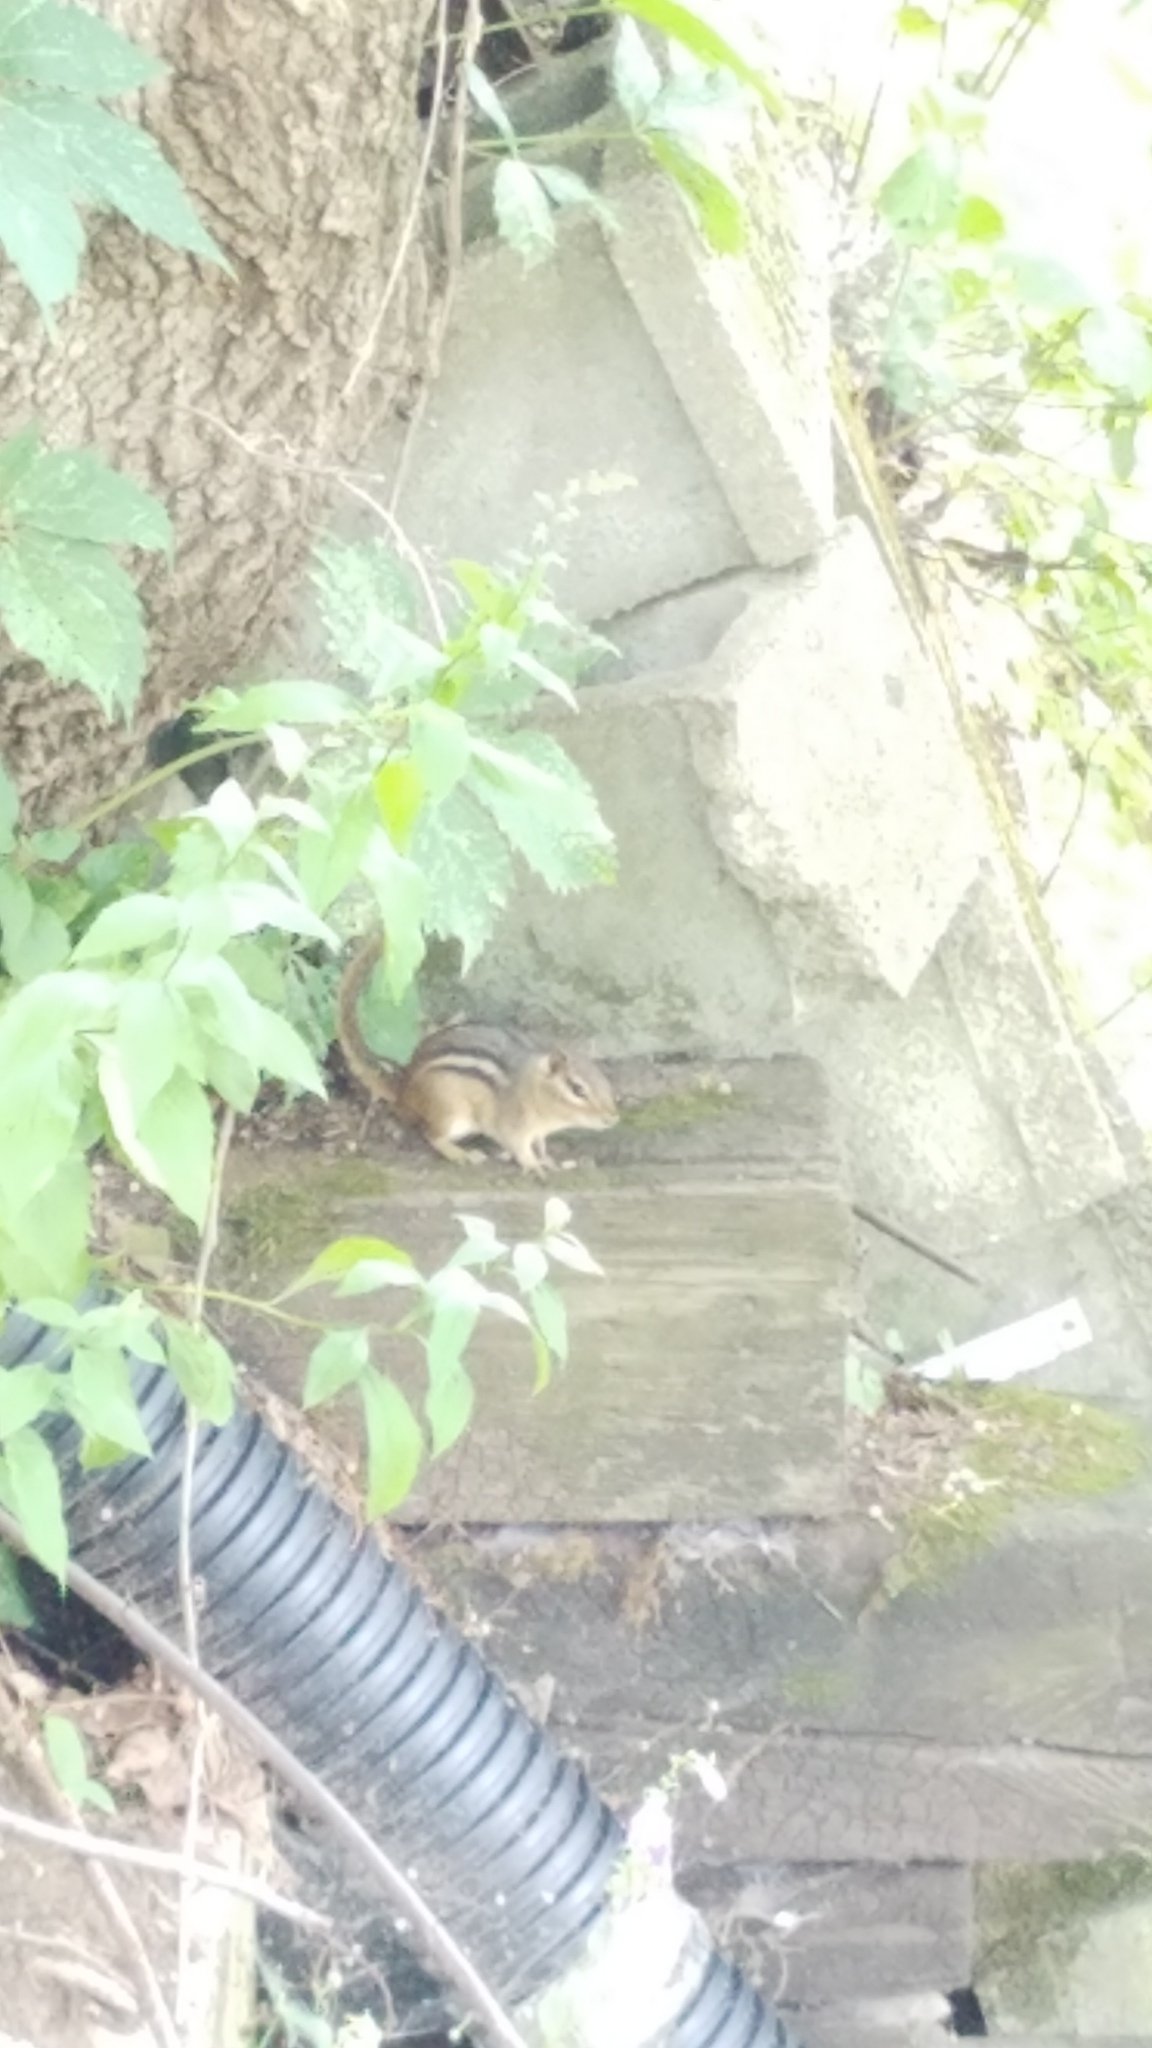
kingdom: Animalia
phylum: Chordata
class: Mammalia
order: Rodentia
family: Sciuridae
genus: Tamias
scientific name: Tamias striatus
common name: Eastern chipmunk
